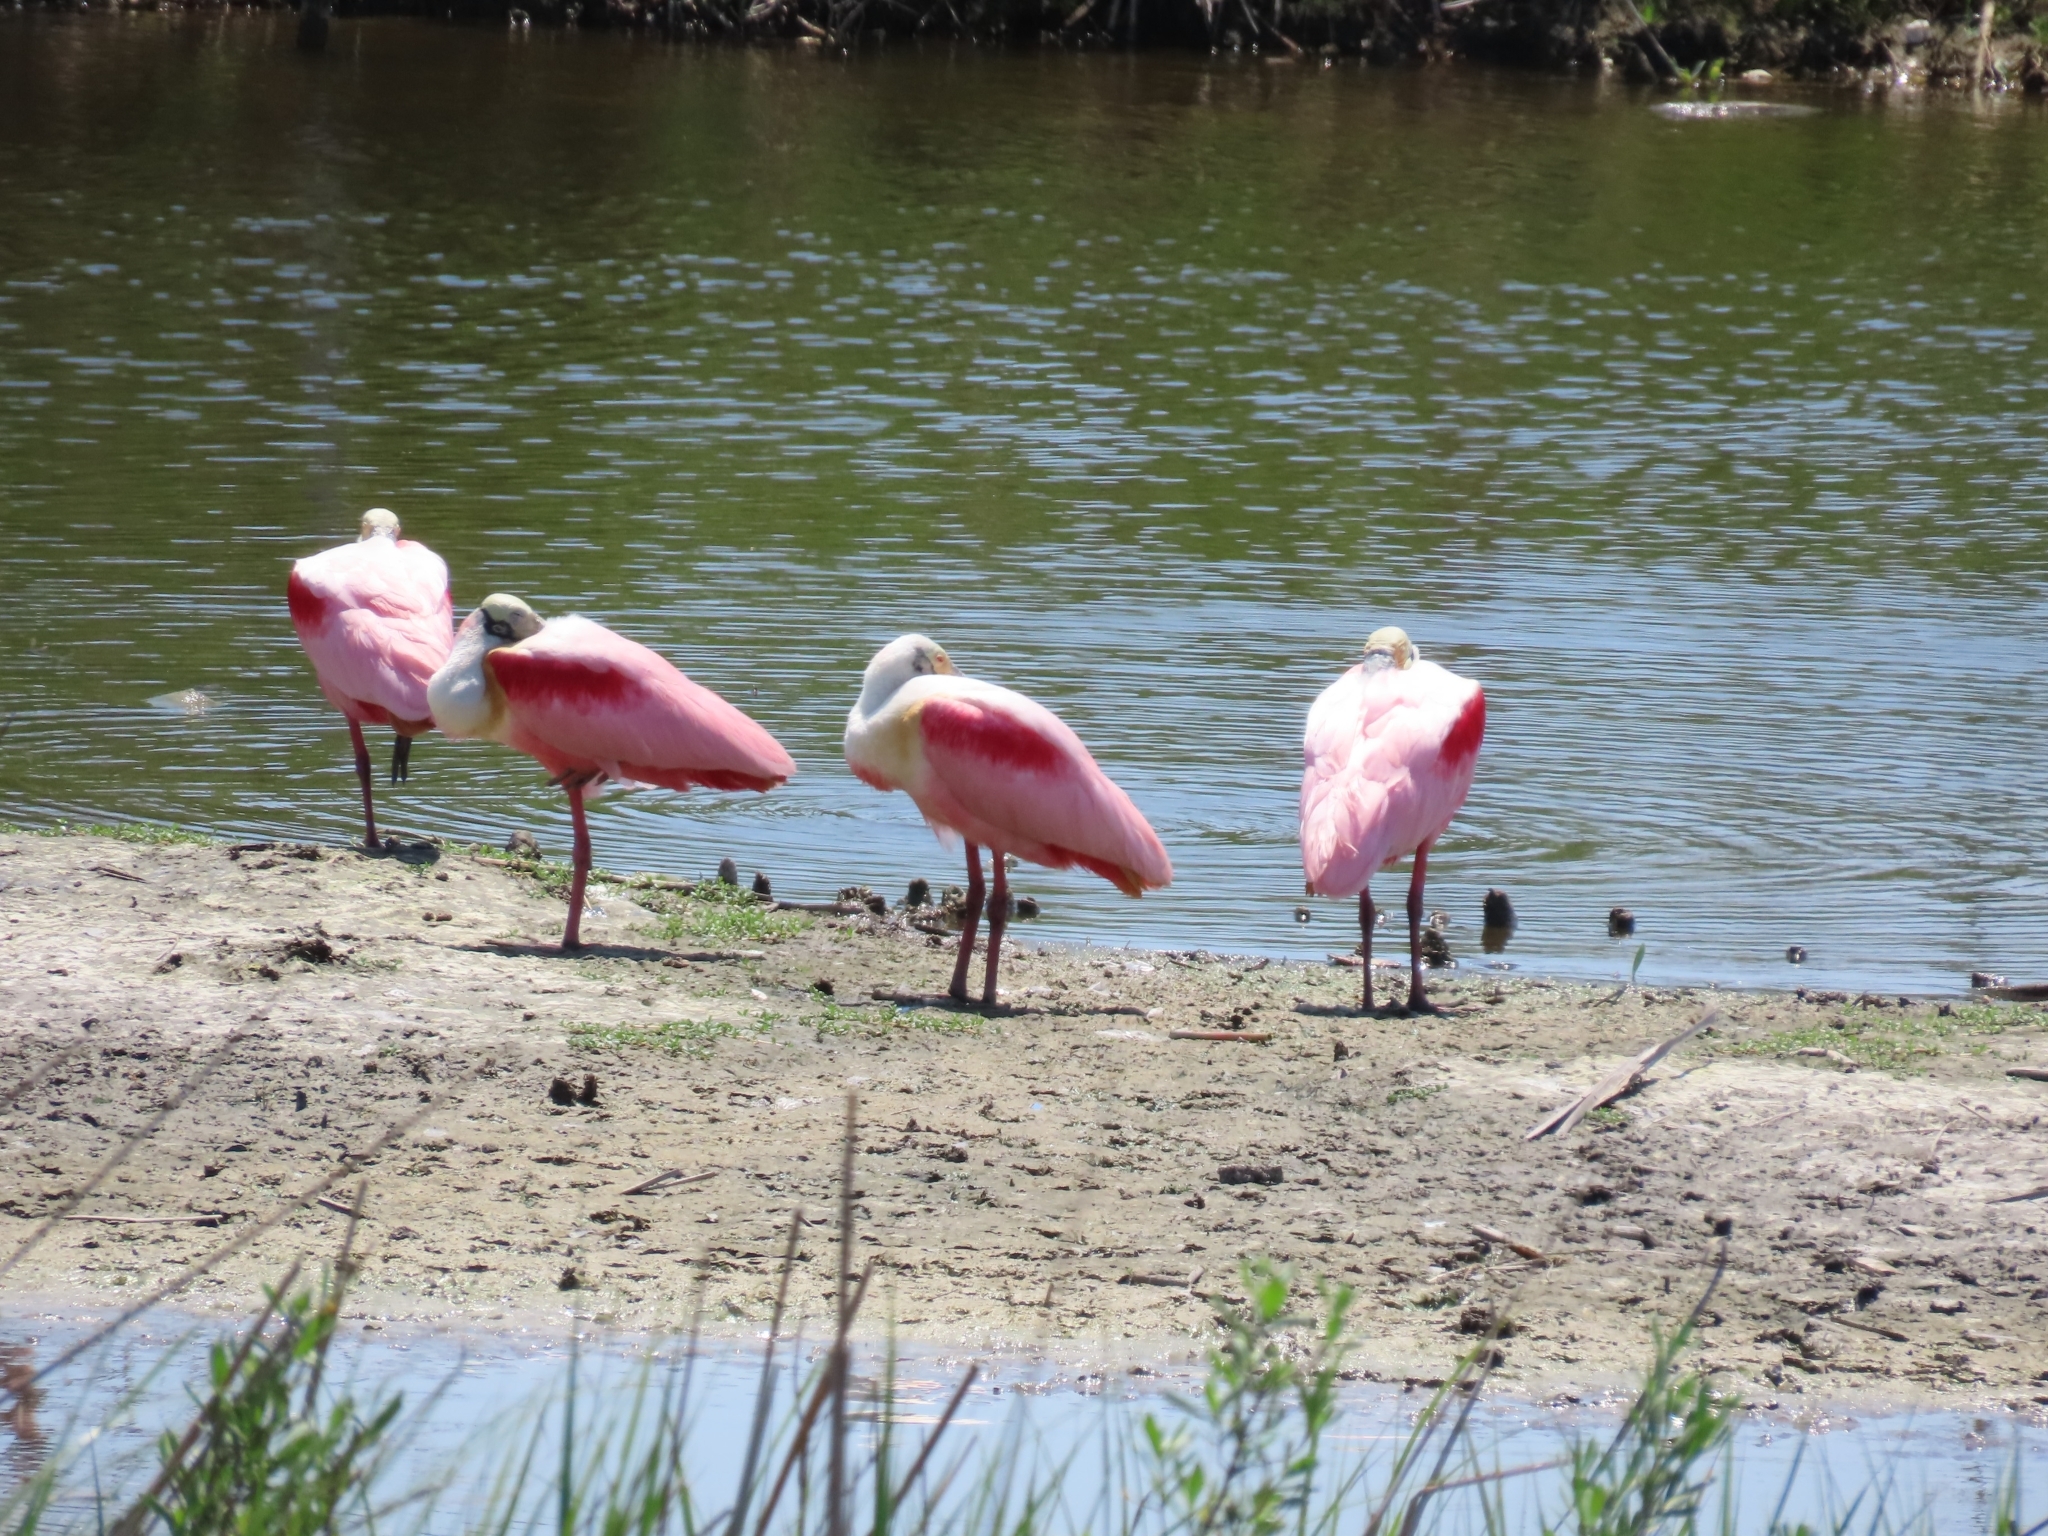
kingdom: Animalia
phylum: Chordata
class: Aves
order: Pelecaniformes
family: Threskiornithidae
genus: Platalea
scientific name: Platalea ajaja
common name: Roseate spoonbill
